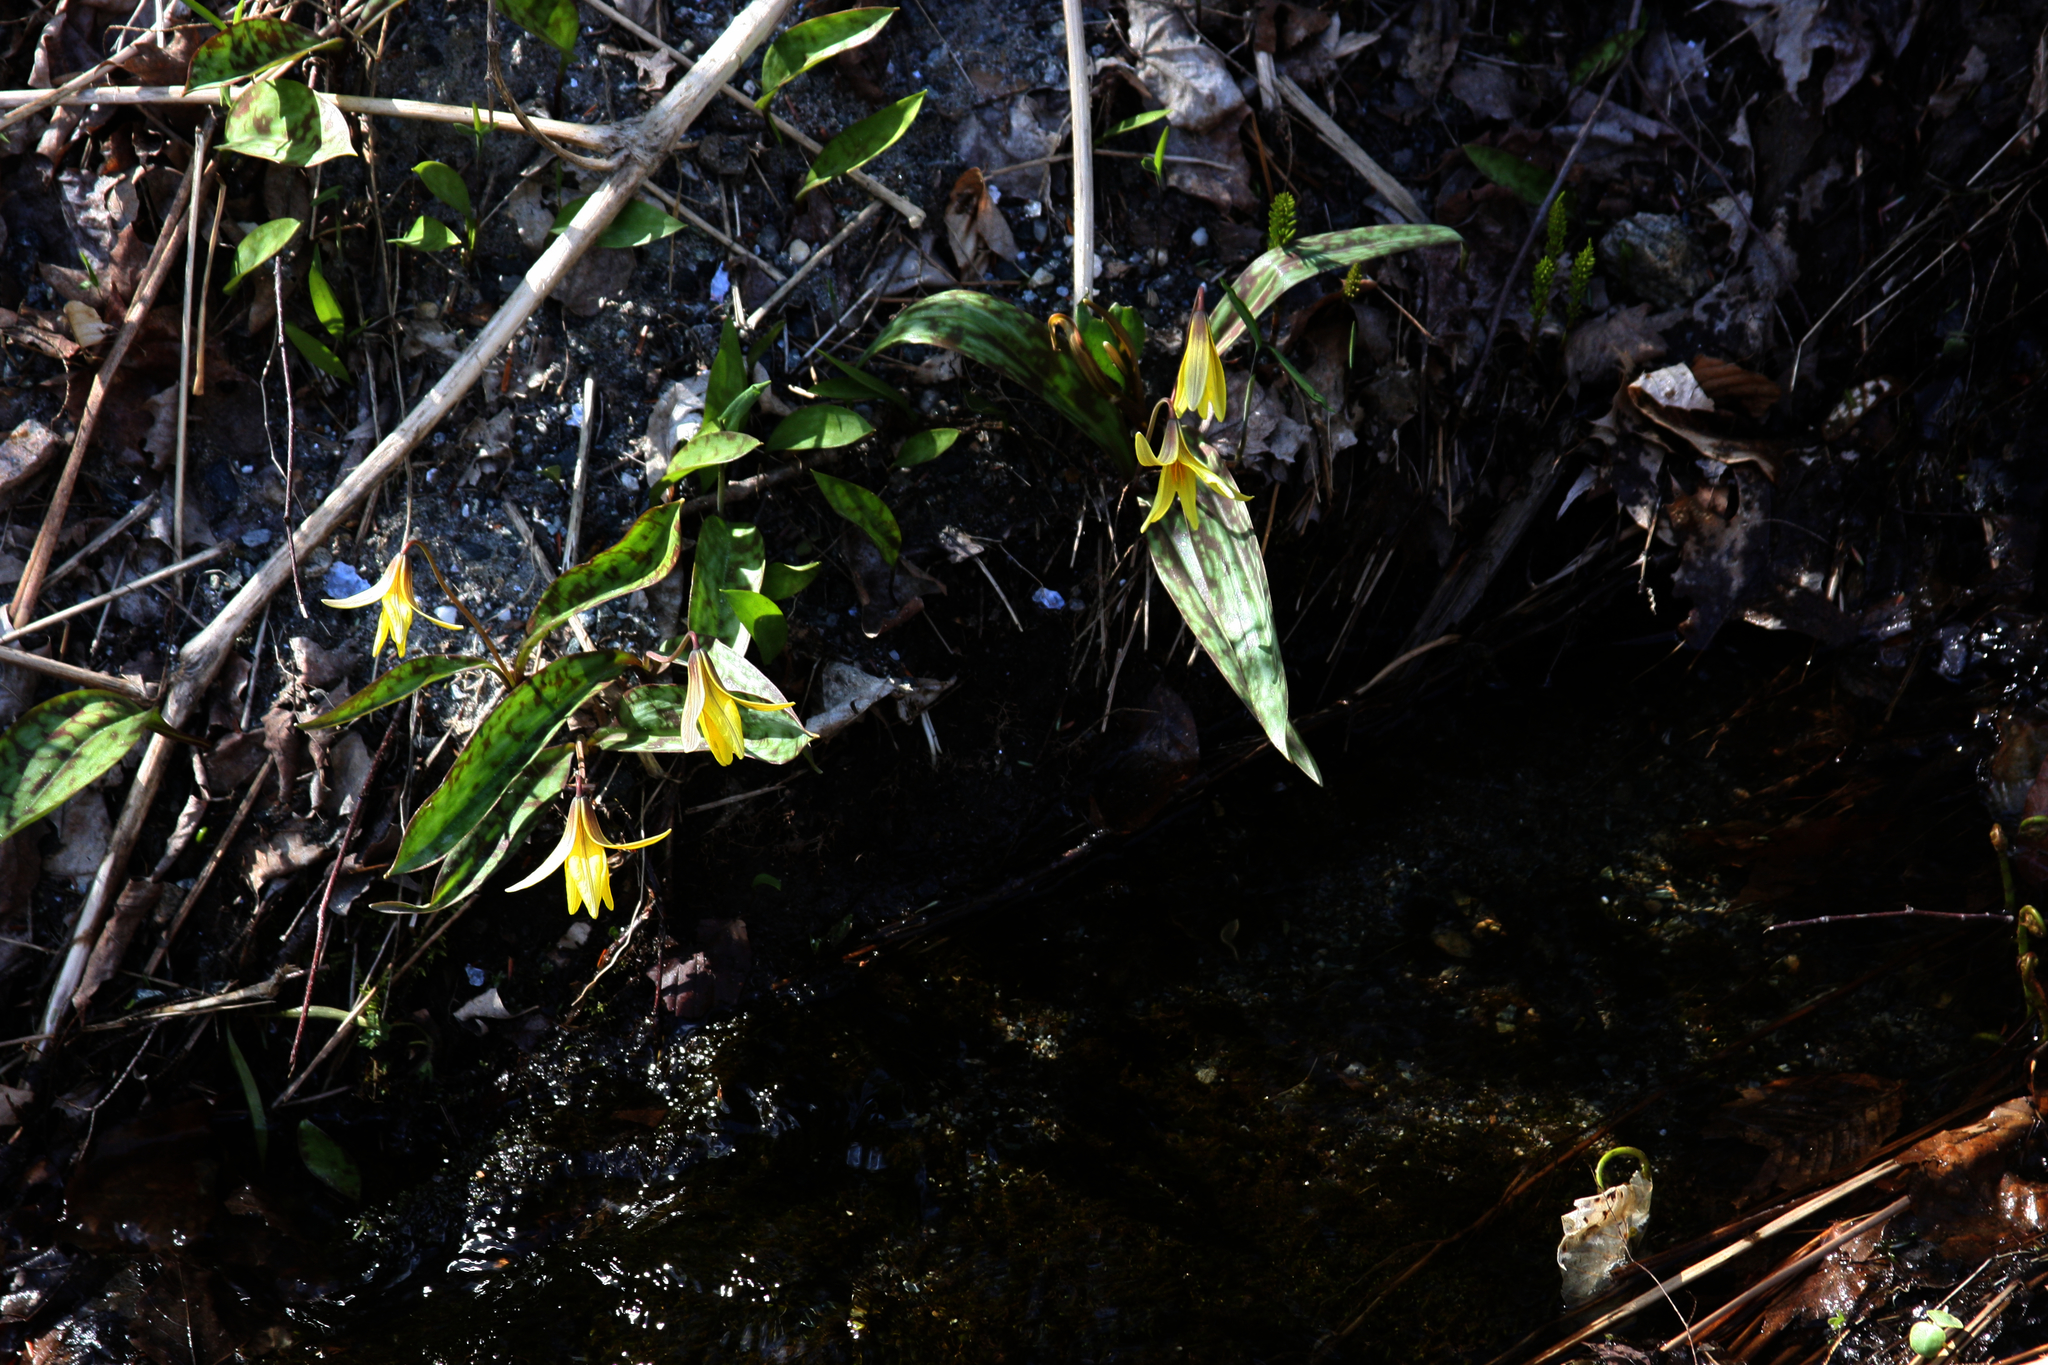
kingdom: Plantae
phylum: Tracheophyta
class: Liliopsida
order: Liliales
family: Liliaceae
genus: Erythronium
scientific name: Erythronium americanum
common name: Yellow adder's-tongue
